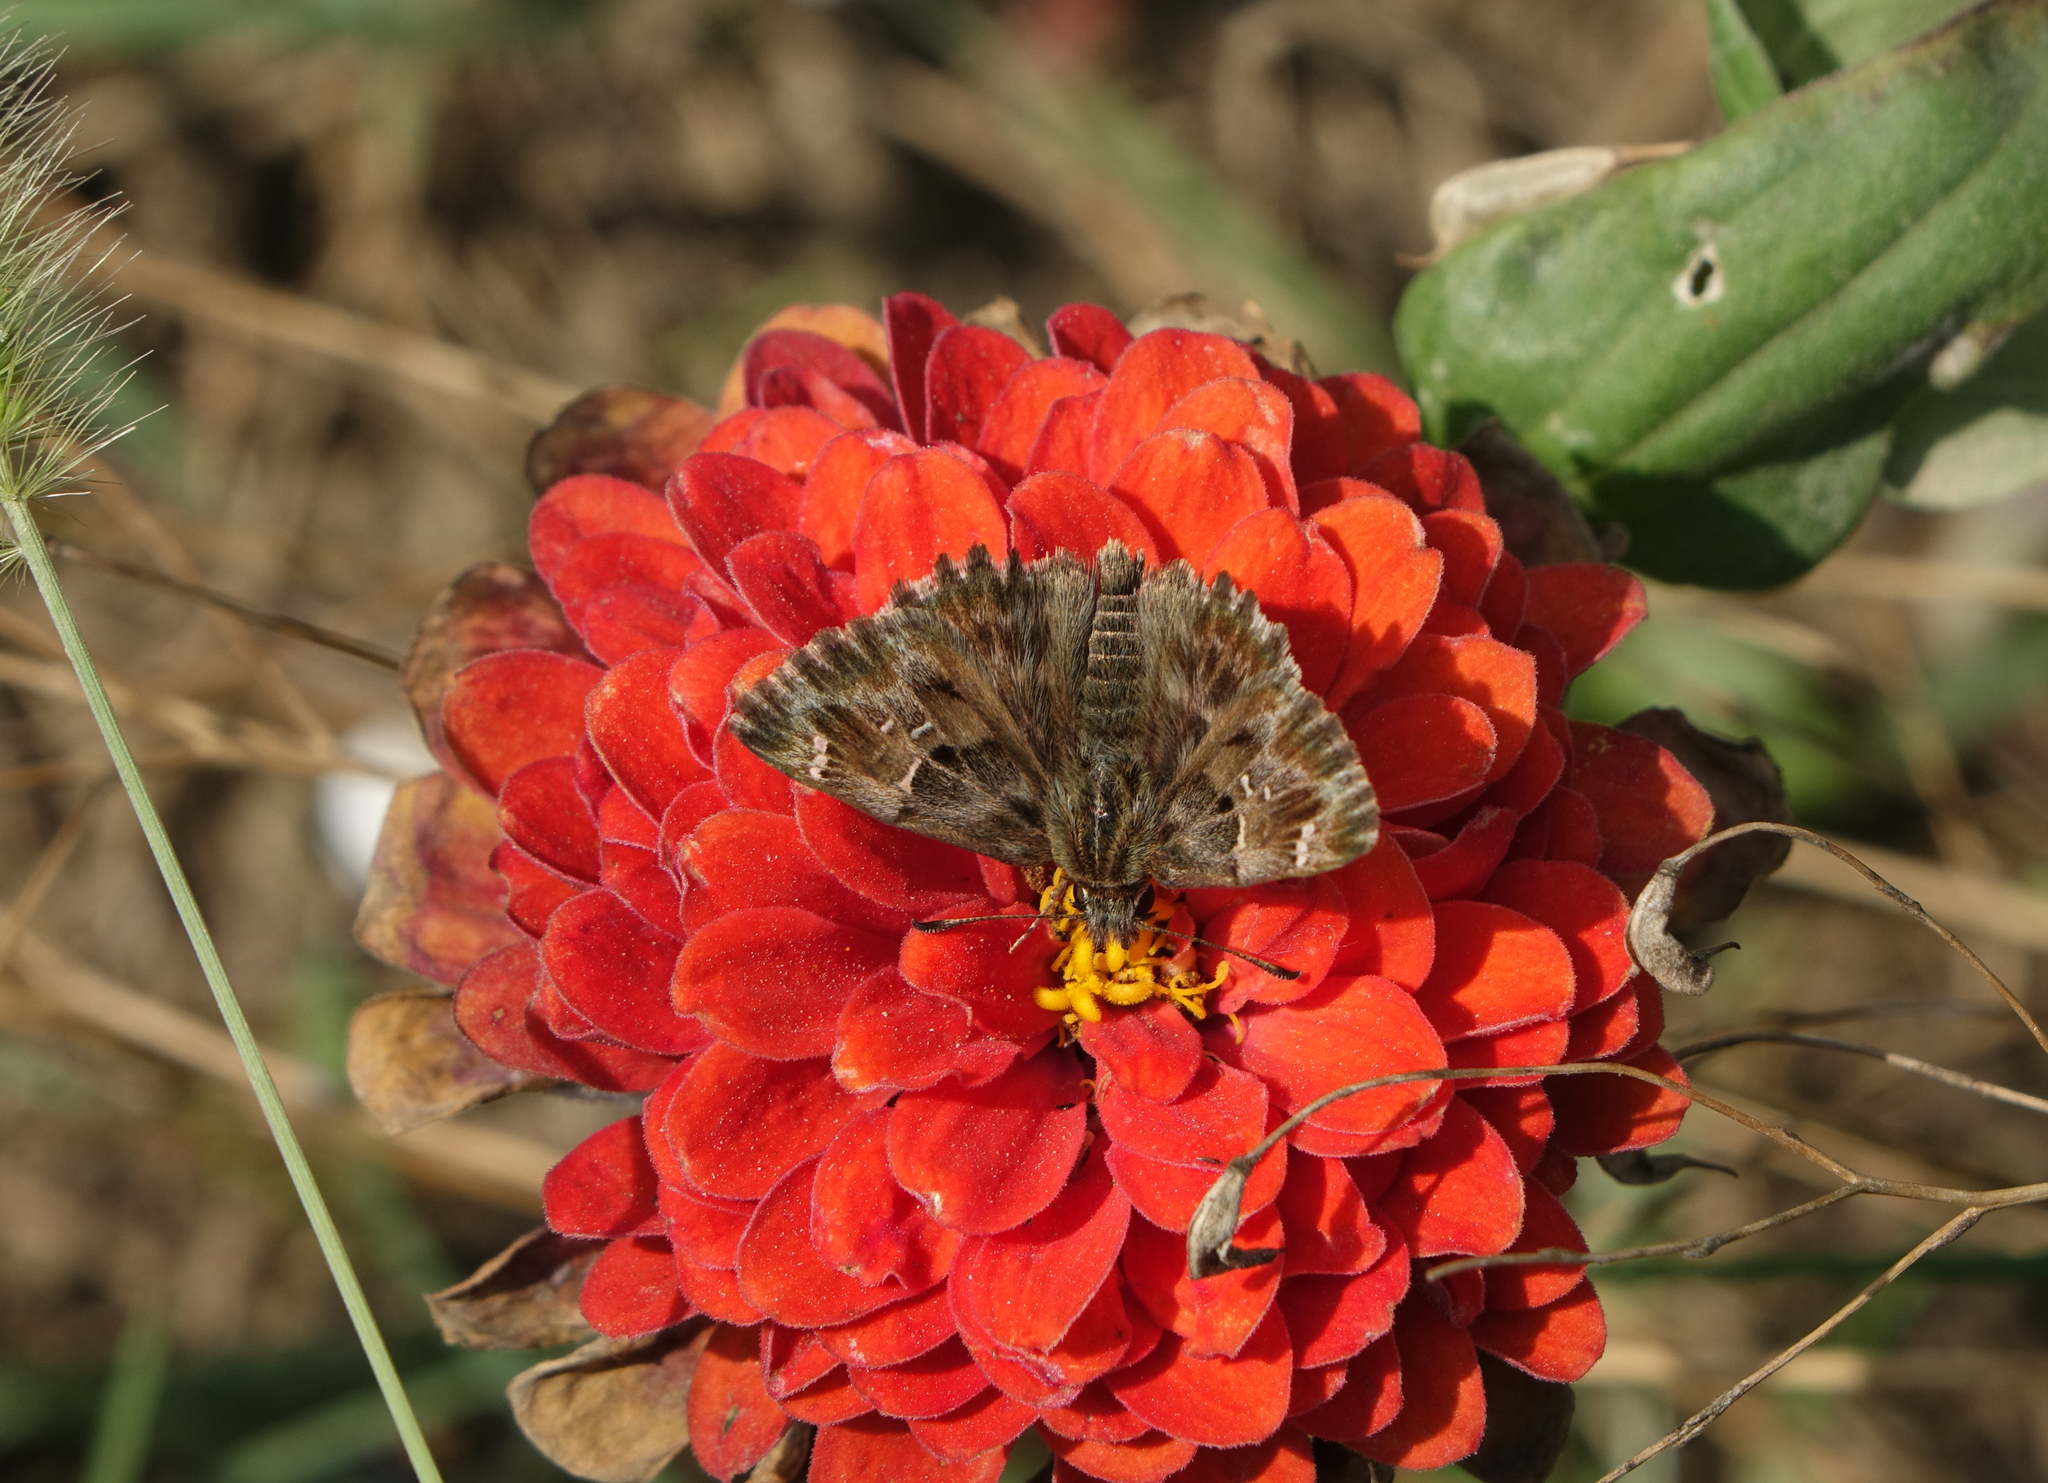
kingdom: Animalia
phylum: Arthropoda
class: Insecta
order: Lepidoptera
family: Hesperiidae
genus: Carcharodus
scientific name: Carcharodus alceae
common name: Mallow skipper
